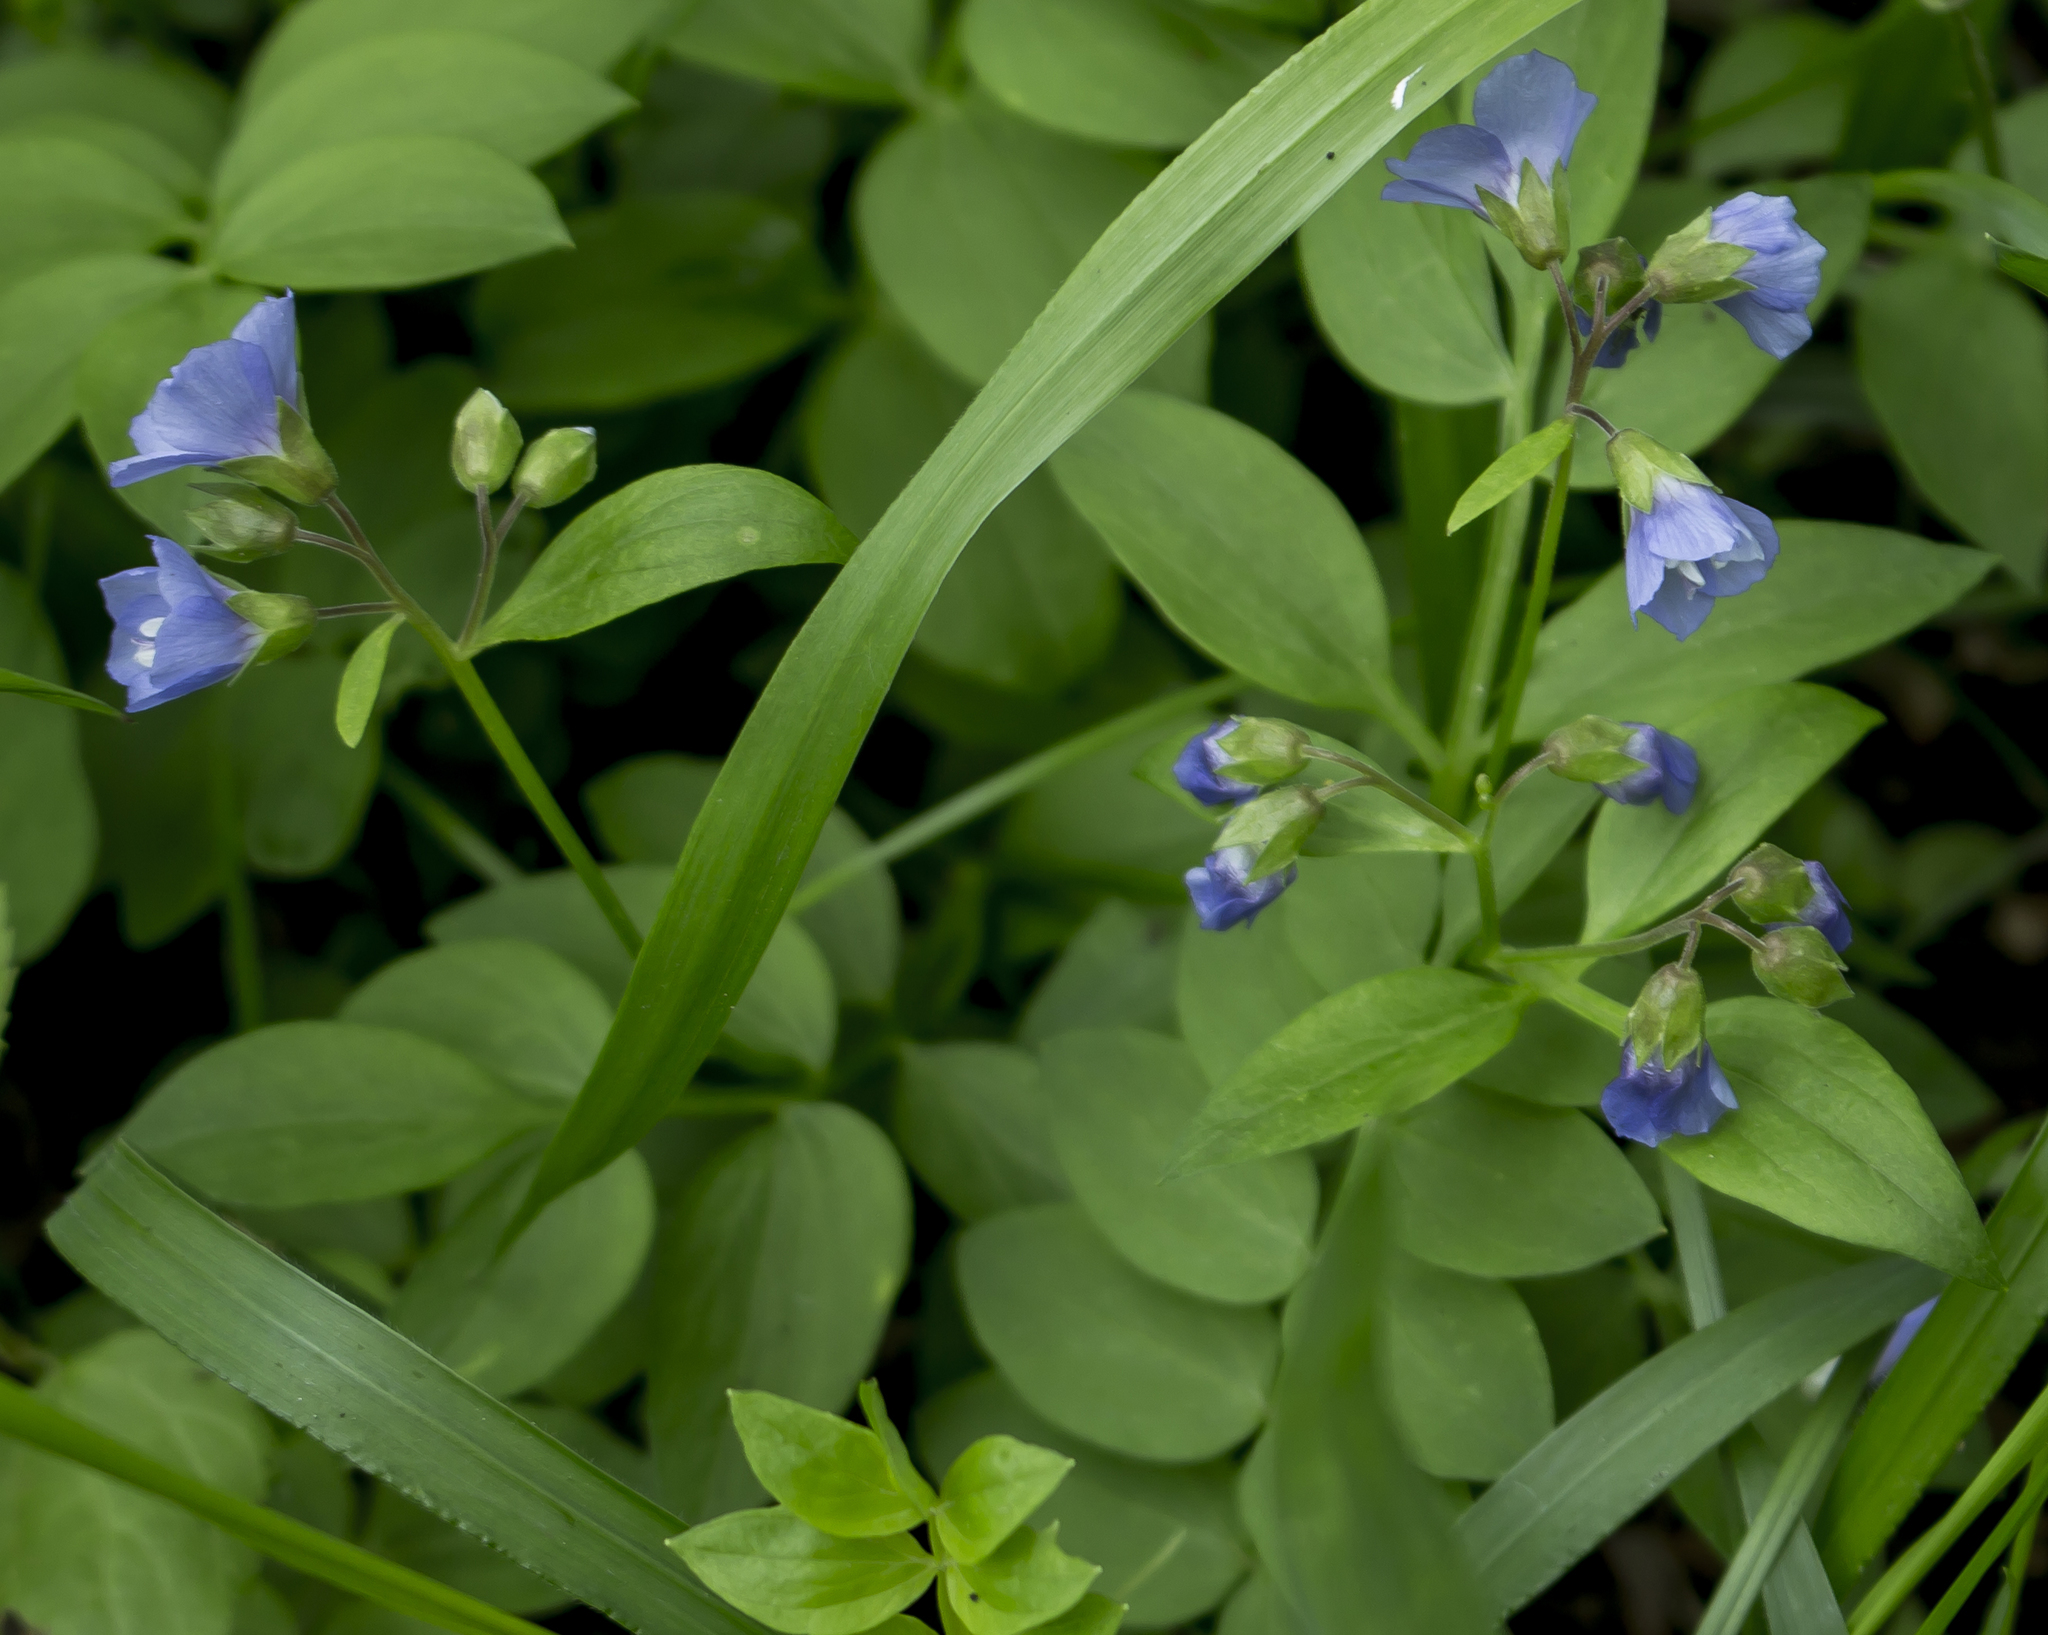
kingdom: Plantae
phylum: Tracheophyta
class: Magnoliopsida
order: Ericales
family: Polemoniaceae
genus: Polemonium
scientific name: Polemonium reptans
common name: Creeping jacob's-ladder
